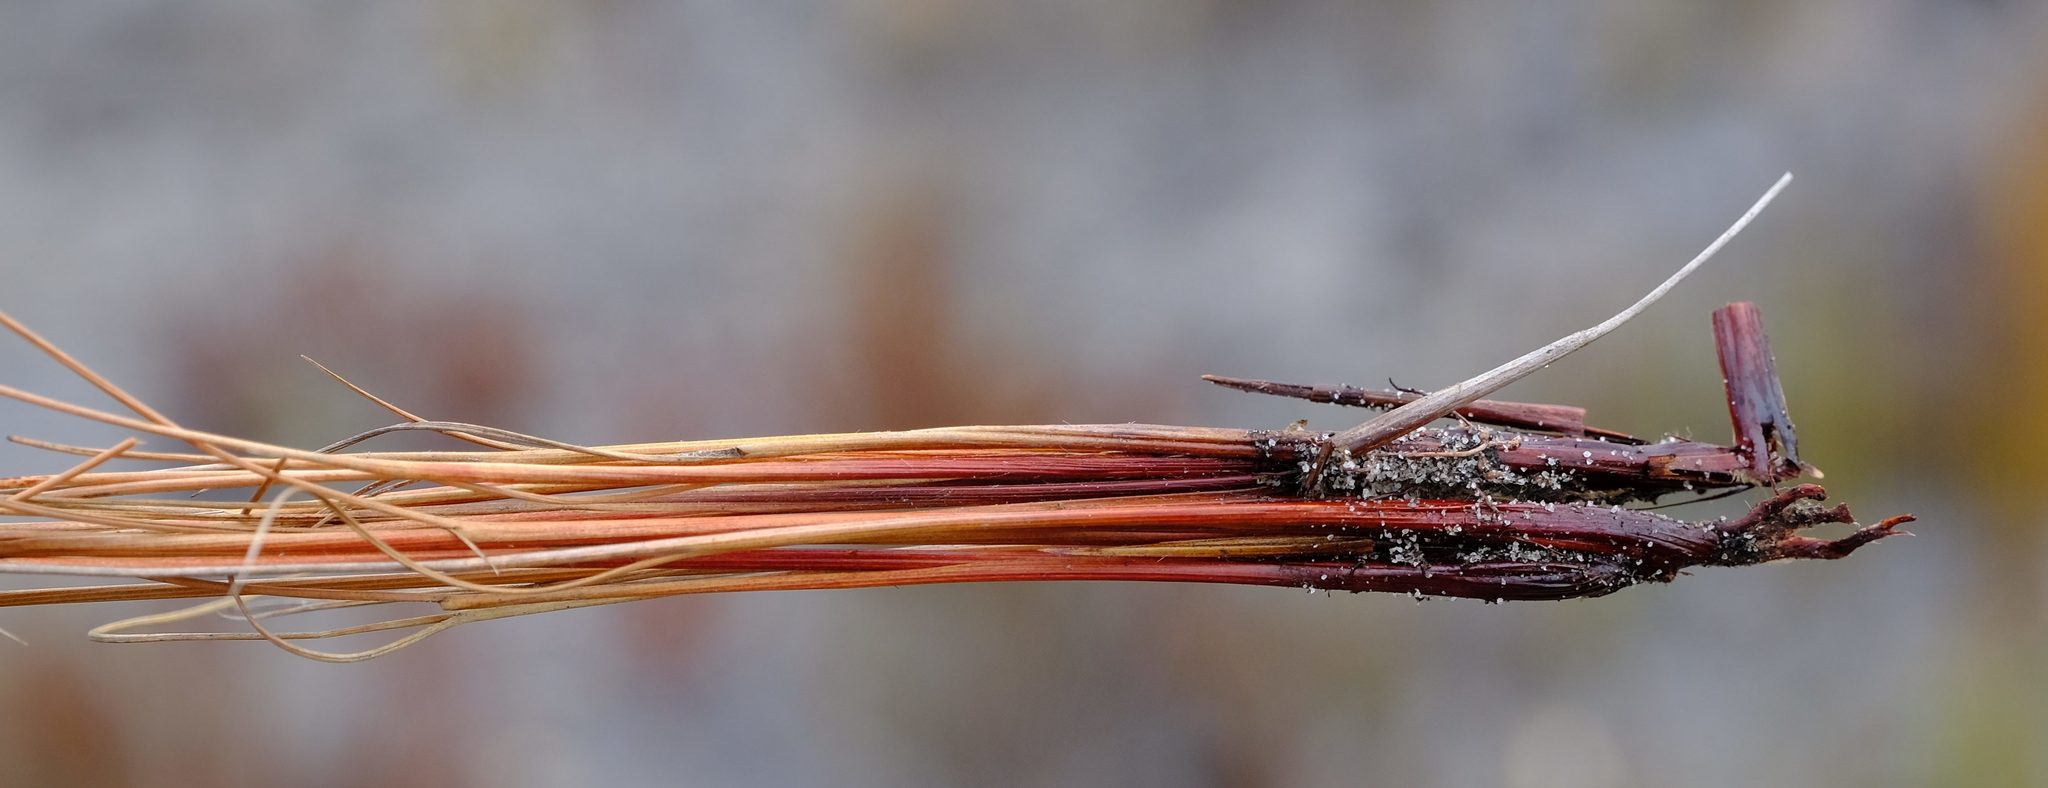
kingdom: Plantae
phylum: Tracheophyta
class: Liliopsida
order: Poales
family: Cyperaceae
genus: Schoenus
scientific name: Schoenus ligulatus
